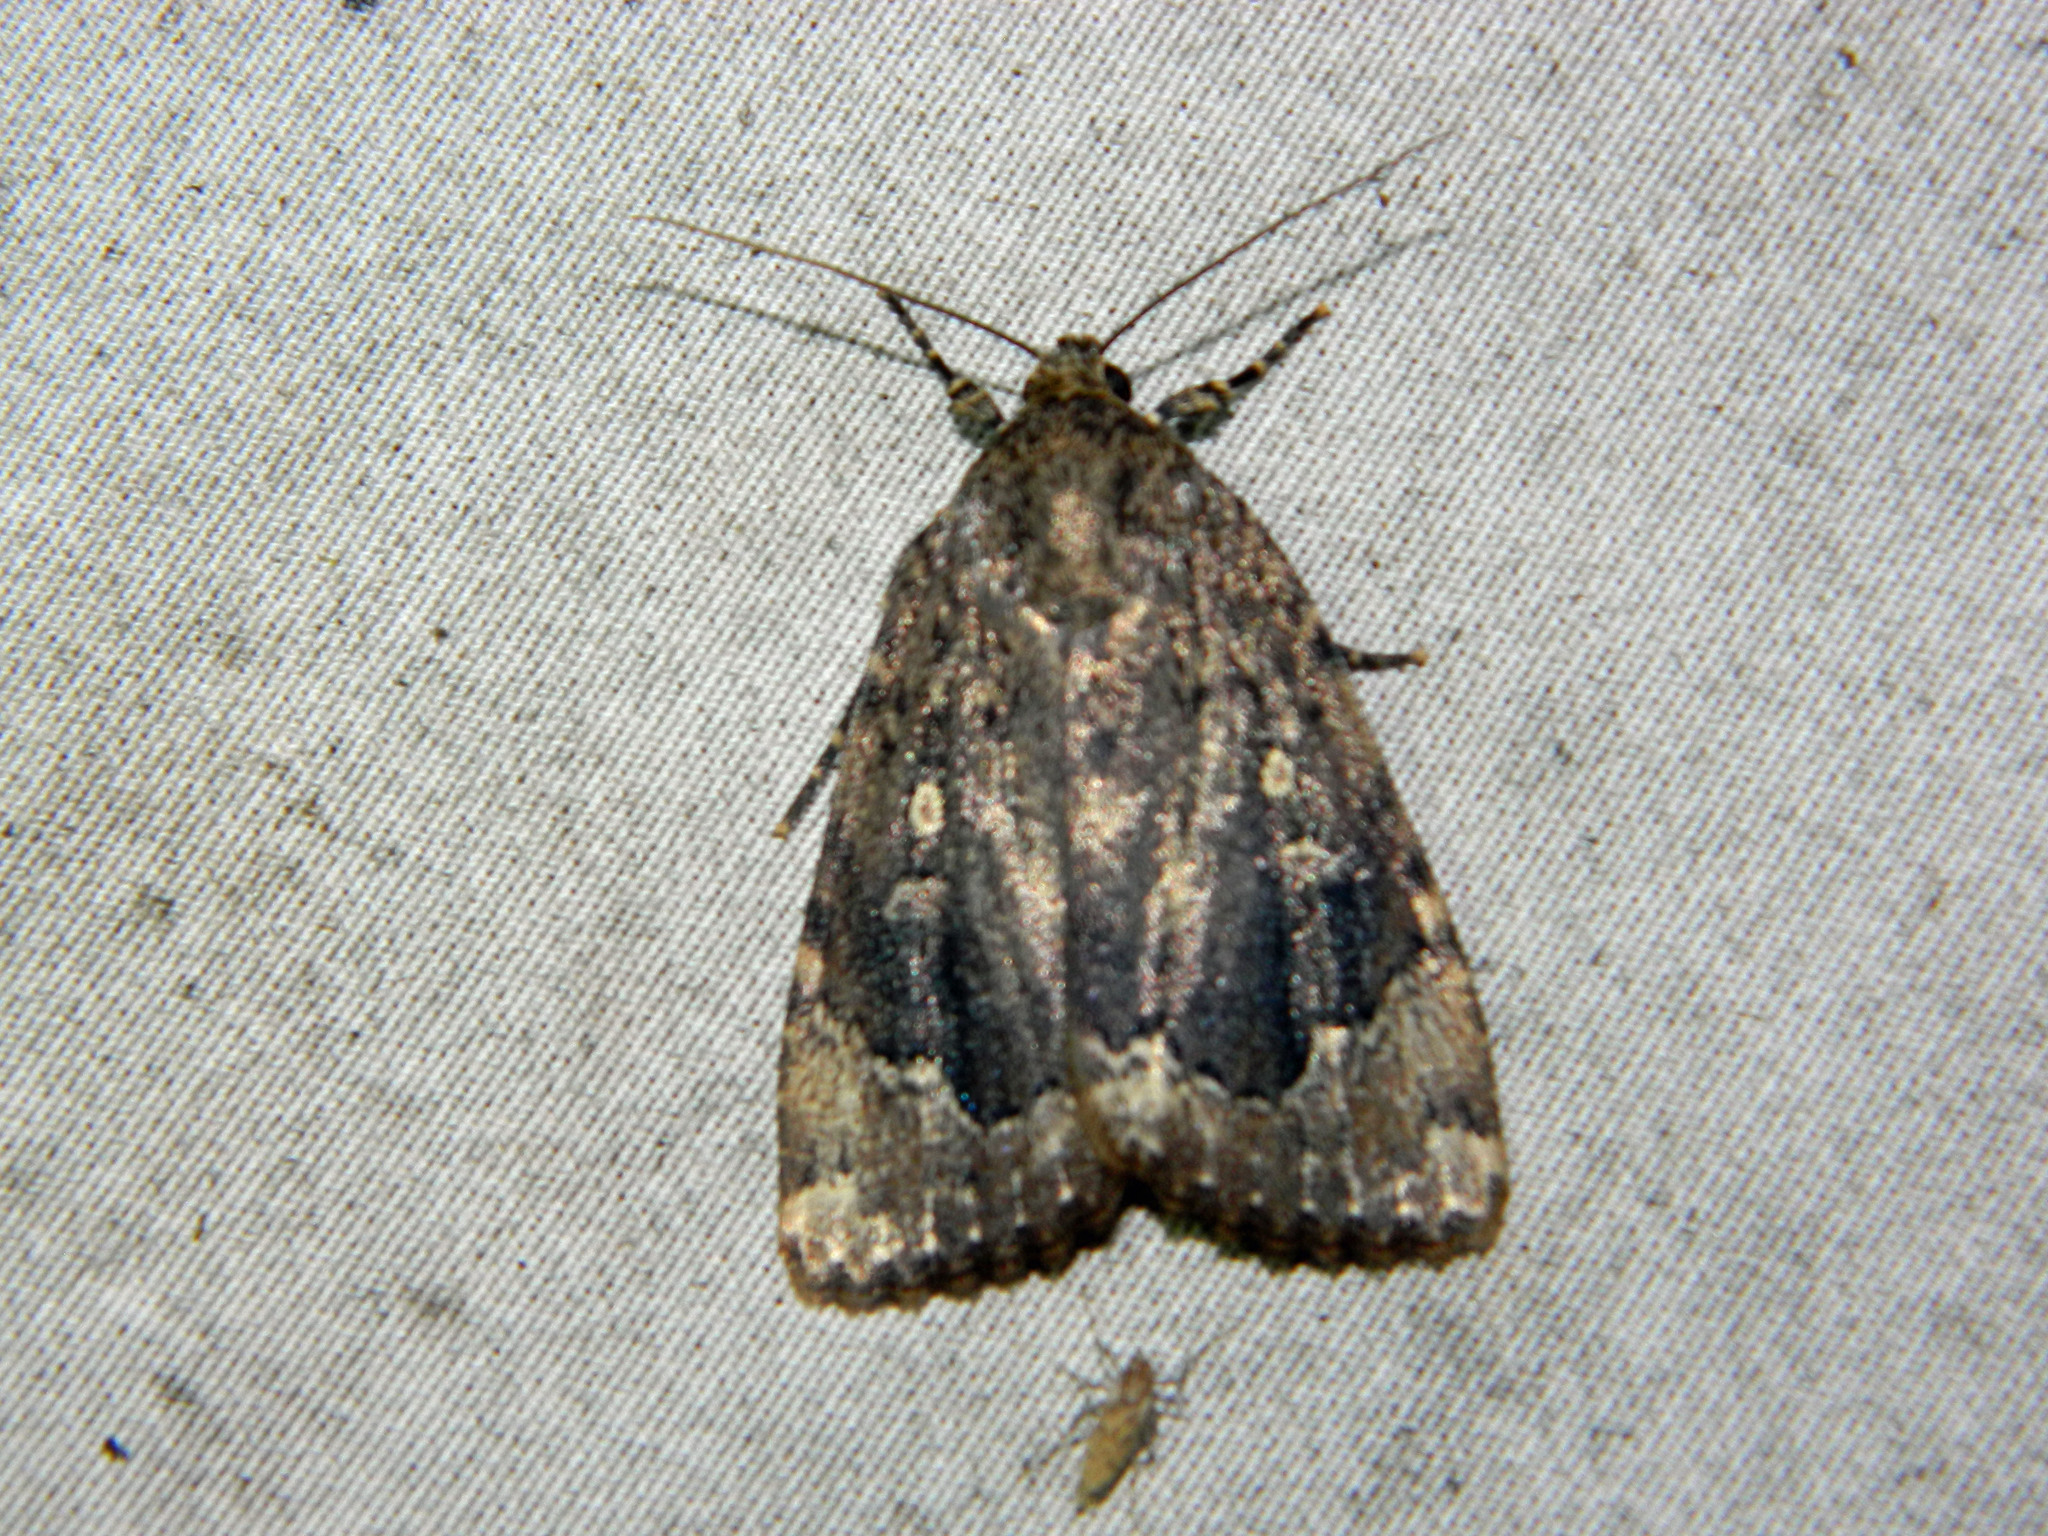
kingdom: Animalia
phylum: Arthropoda
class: Insecta
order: Lepidoptera
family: Noctuidae
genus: Amphipyra
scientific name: Amphipyra pyramidoides
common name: American copper underwing
